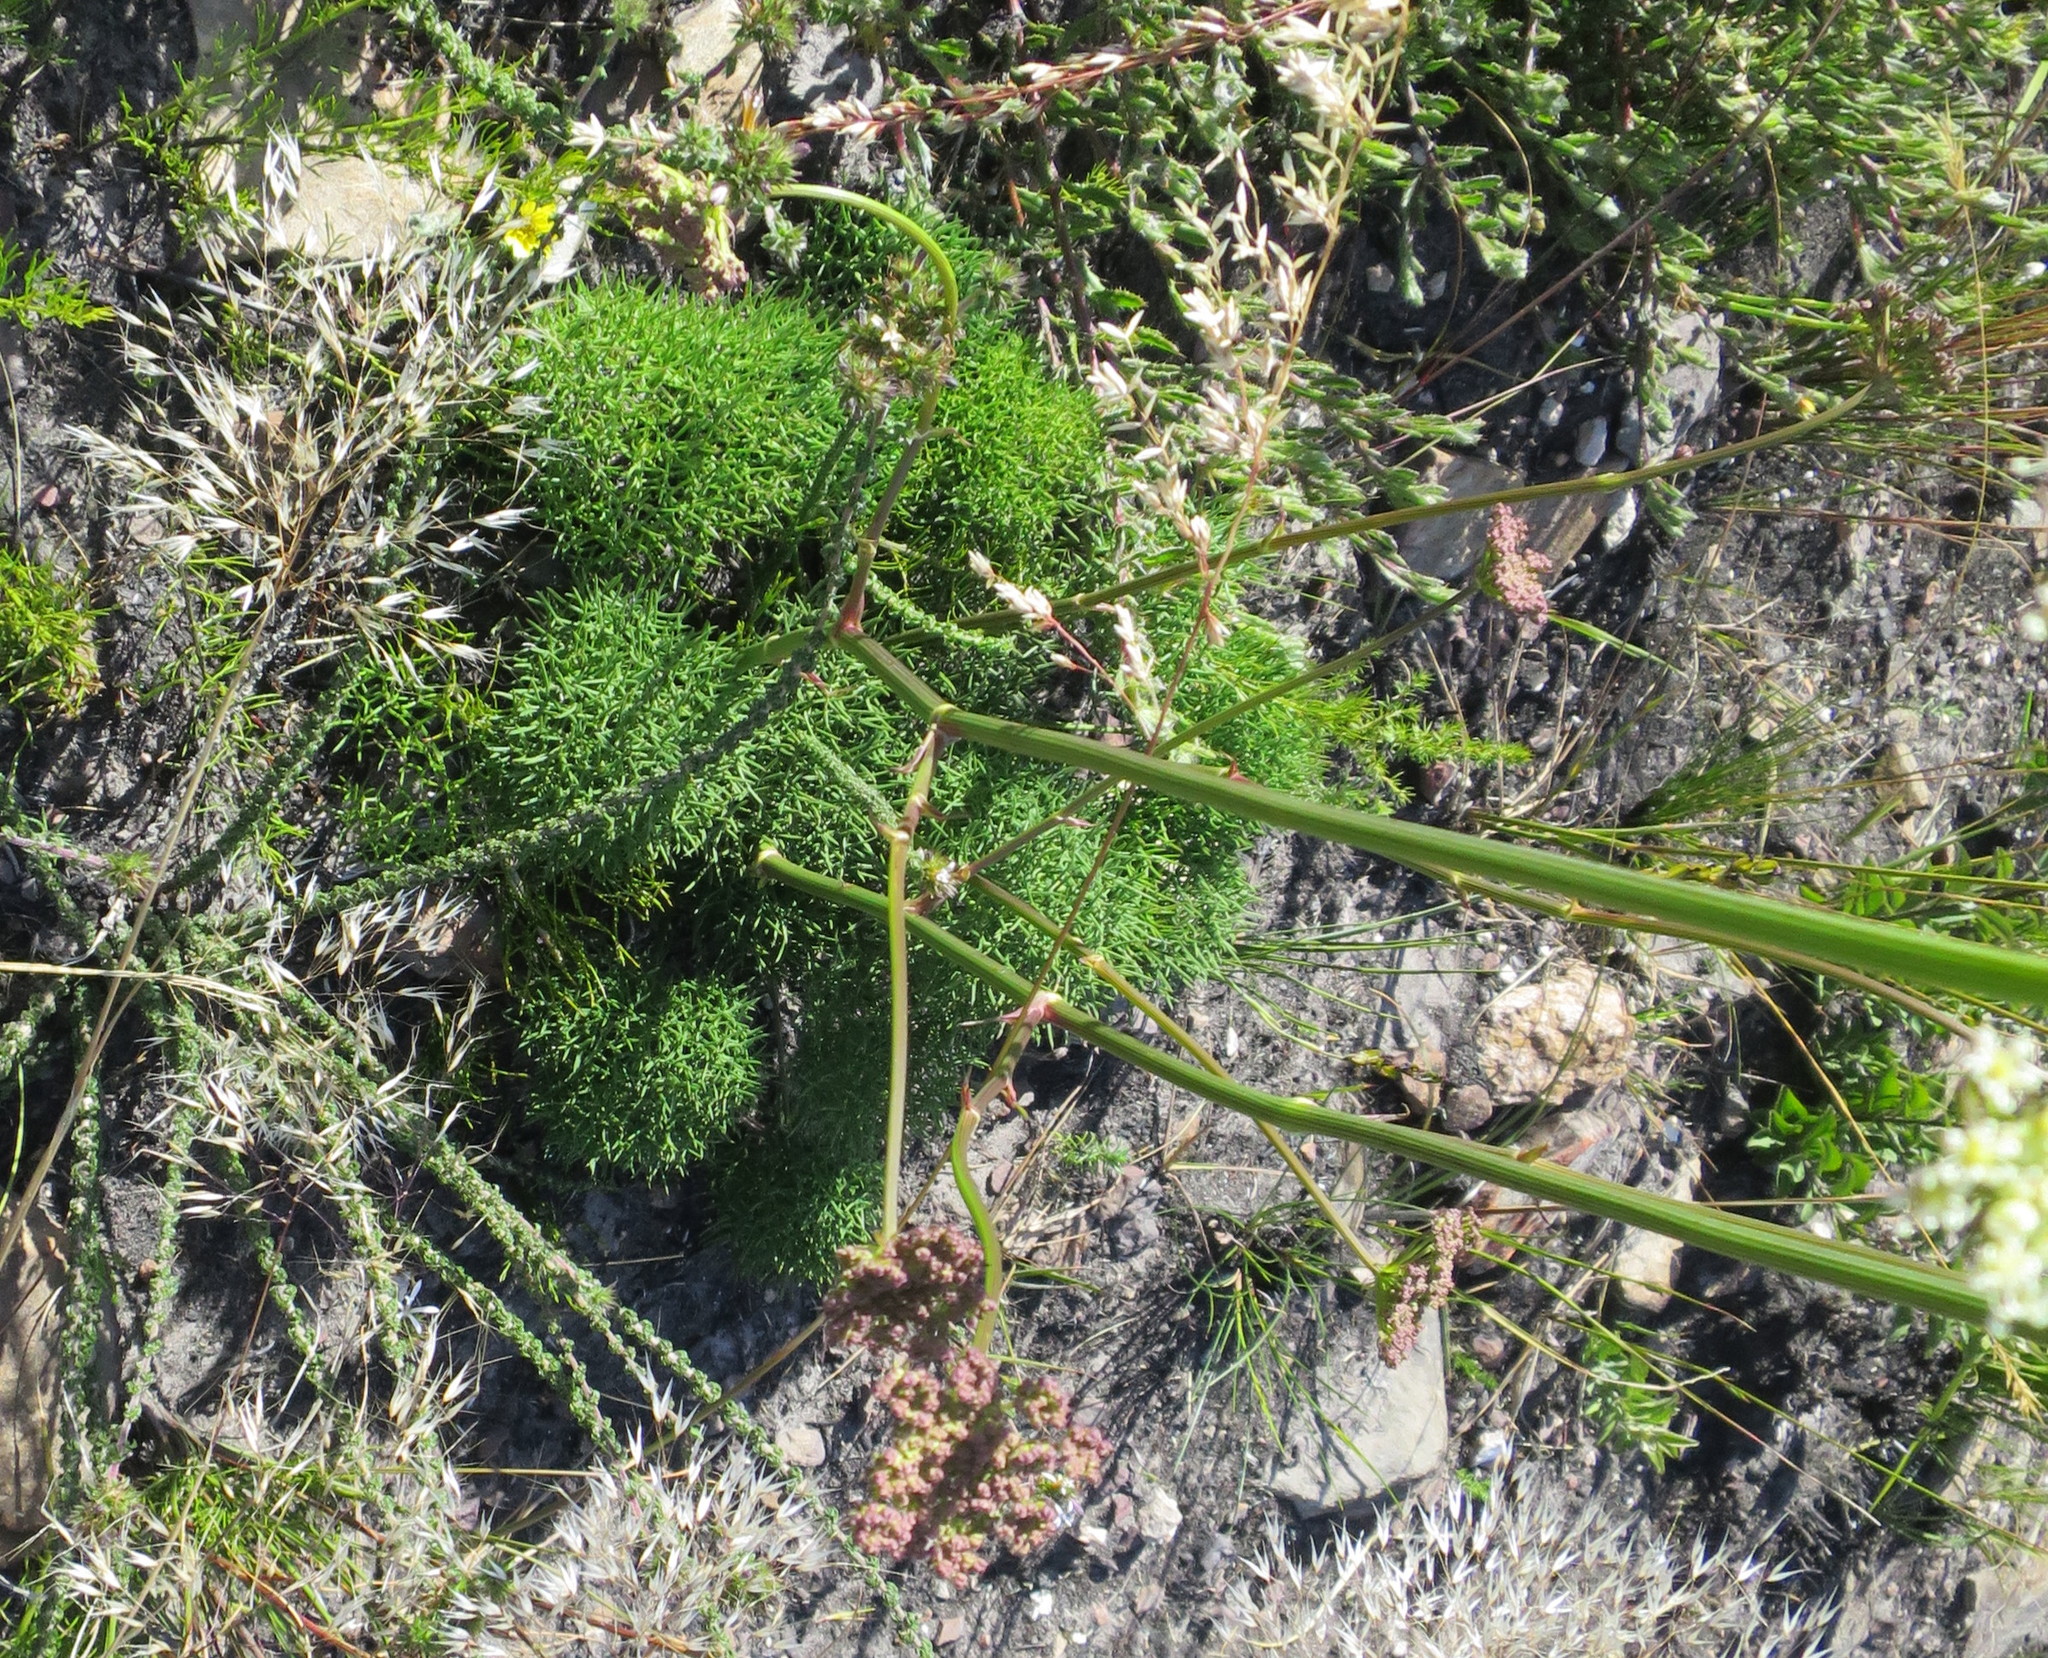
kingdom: Plantae
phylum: Tracheophyta
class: Magnoliopsida
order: Apiales
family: Apiaceae
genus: Nanobubon
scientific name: Nanobubon capillaceum
